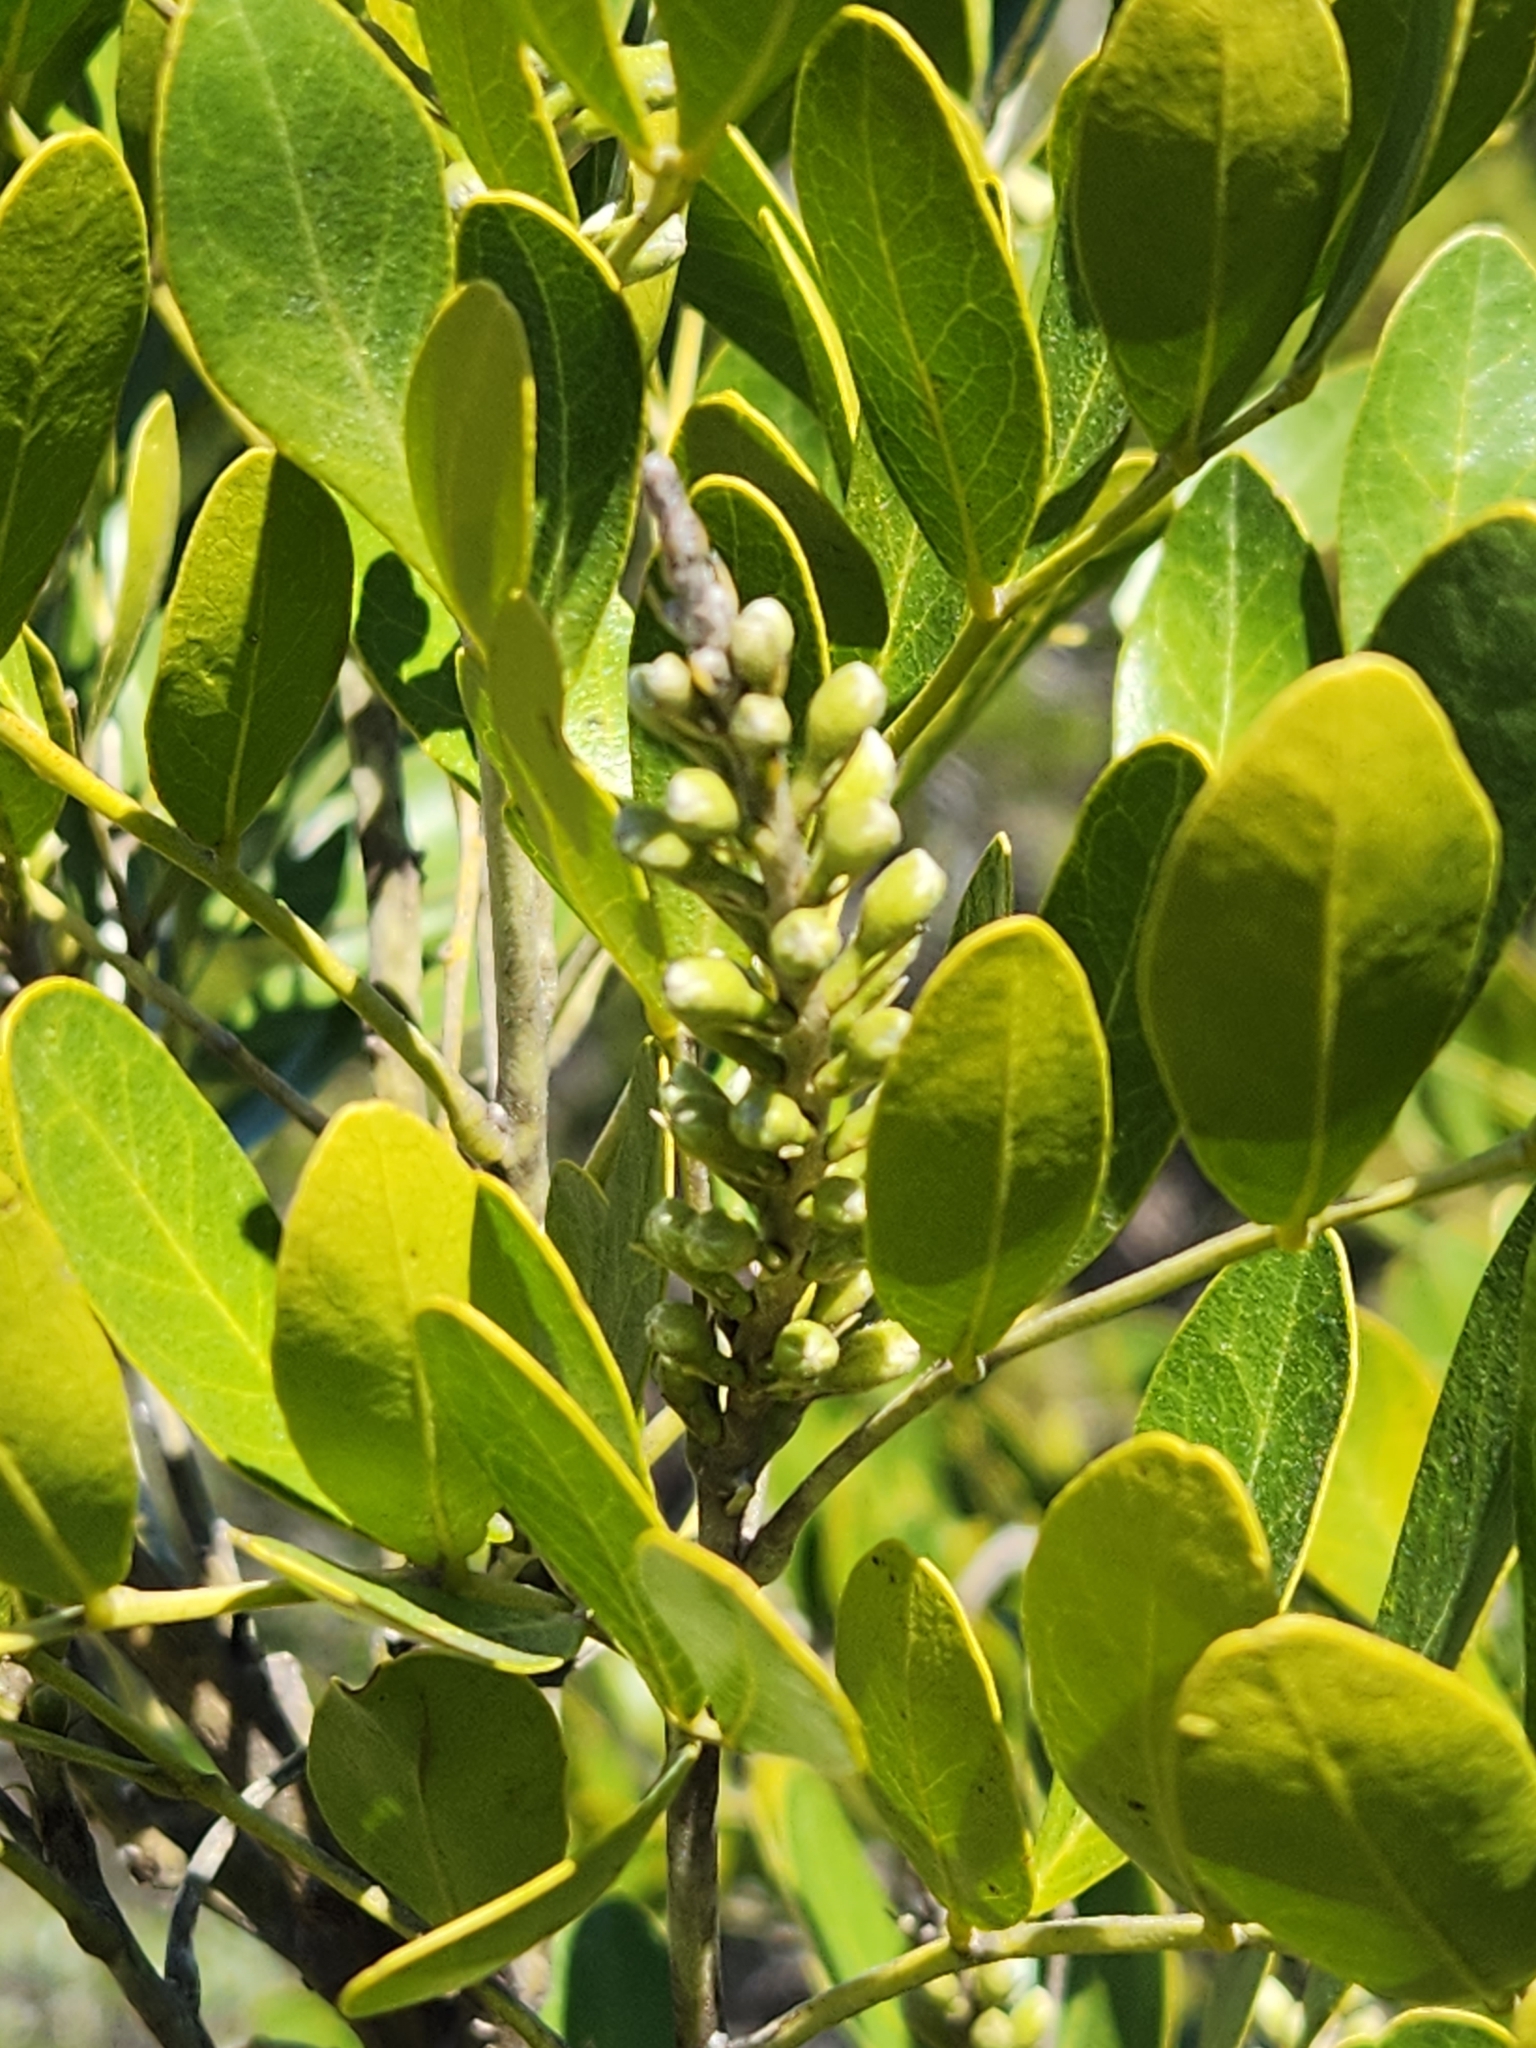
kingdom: Plantae
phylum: Tracheophyta
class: Magnoliopsida
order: Fabales
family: Fabaceae
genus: Dermatophyllum
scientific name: Dermatophyllum secundiflorum
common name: Texas-mountain-laurel
